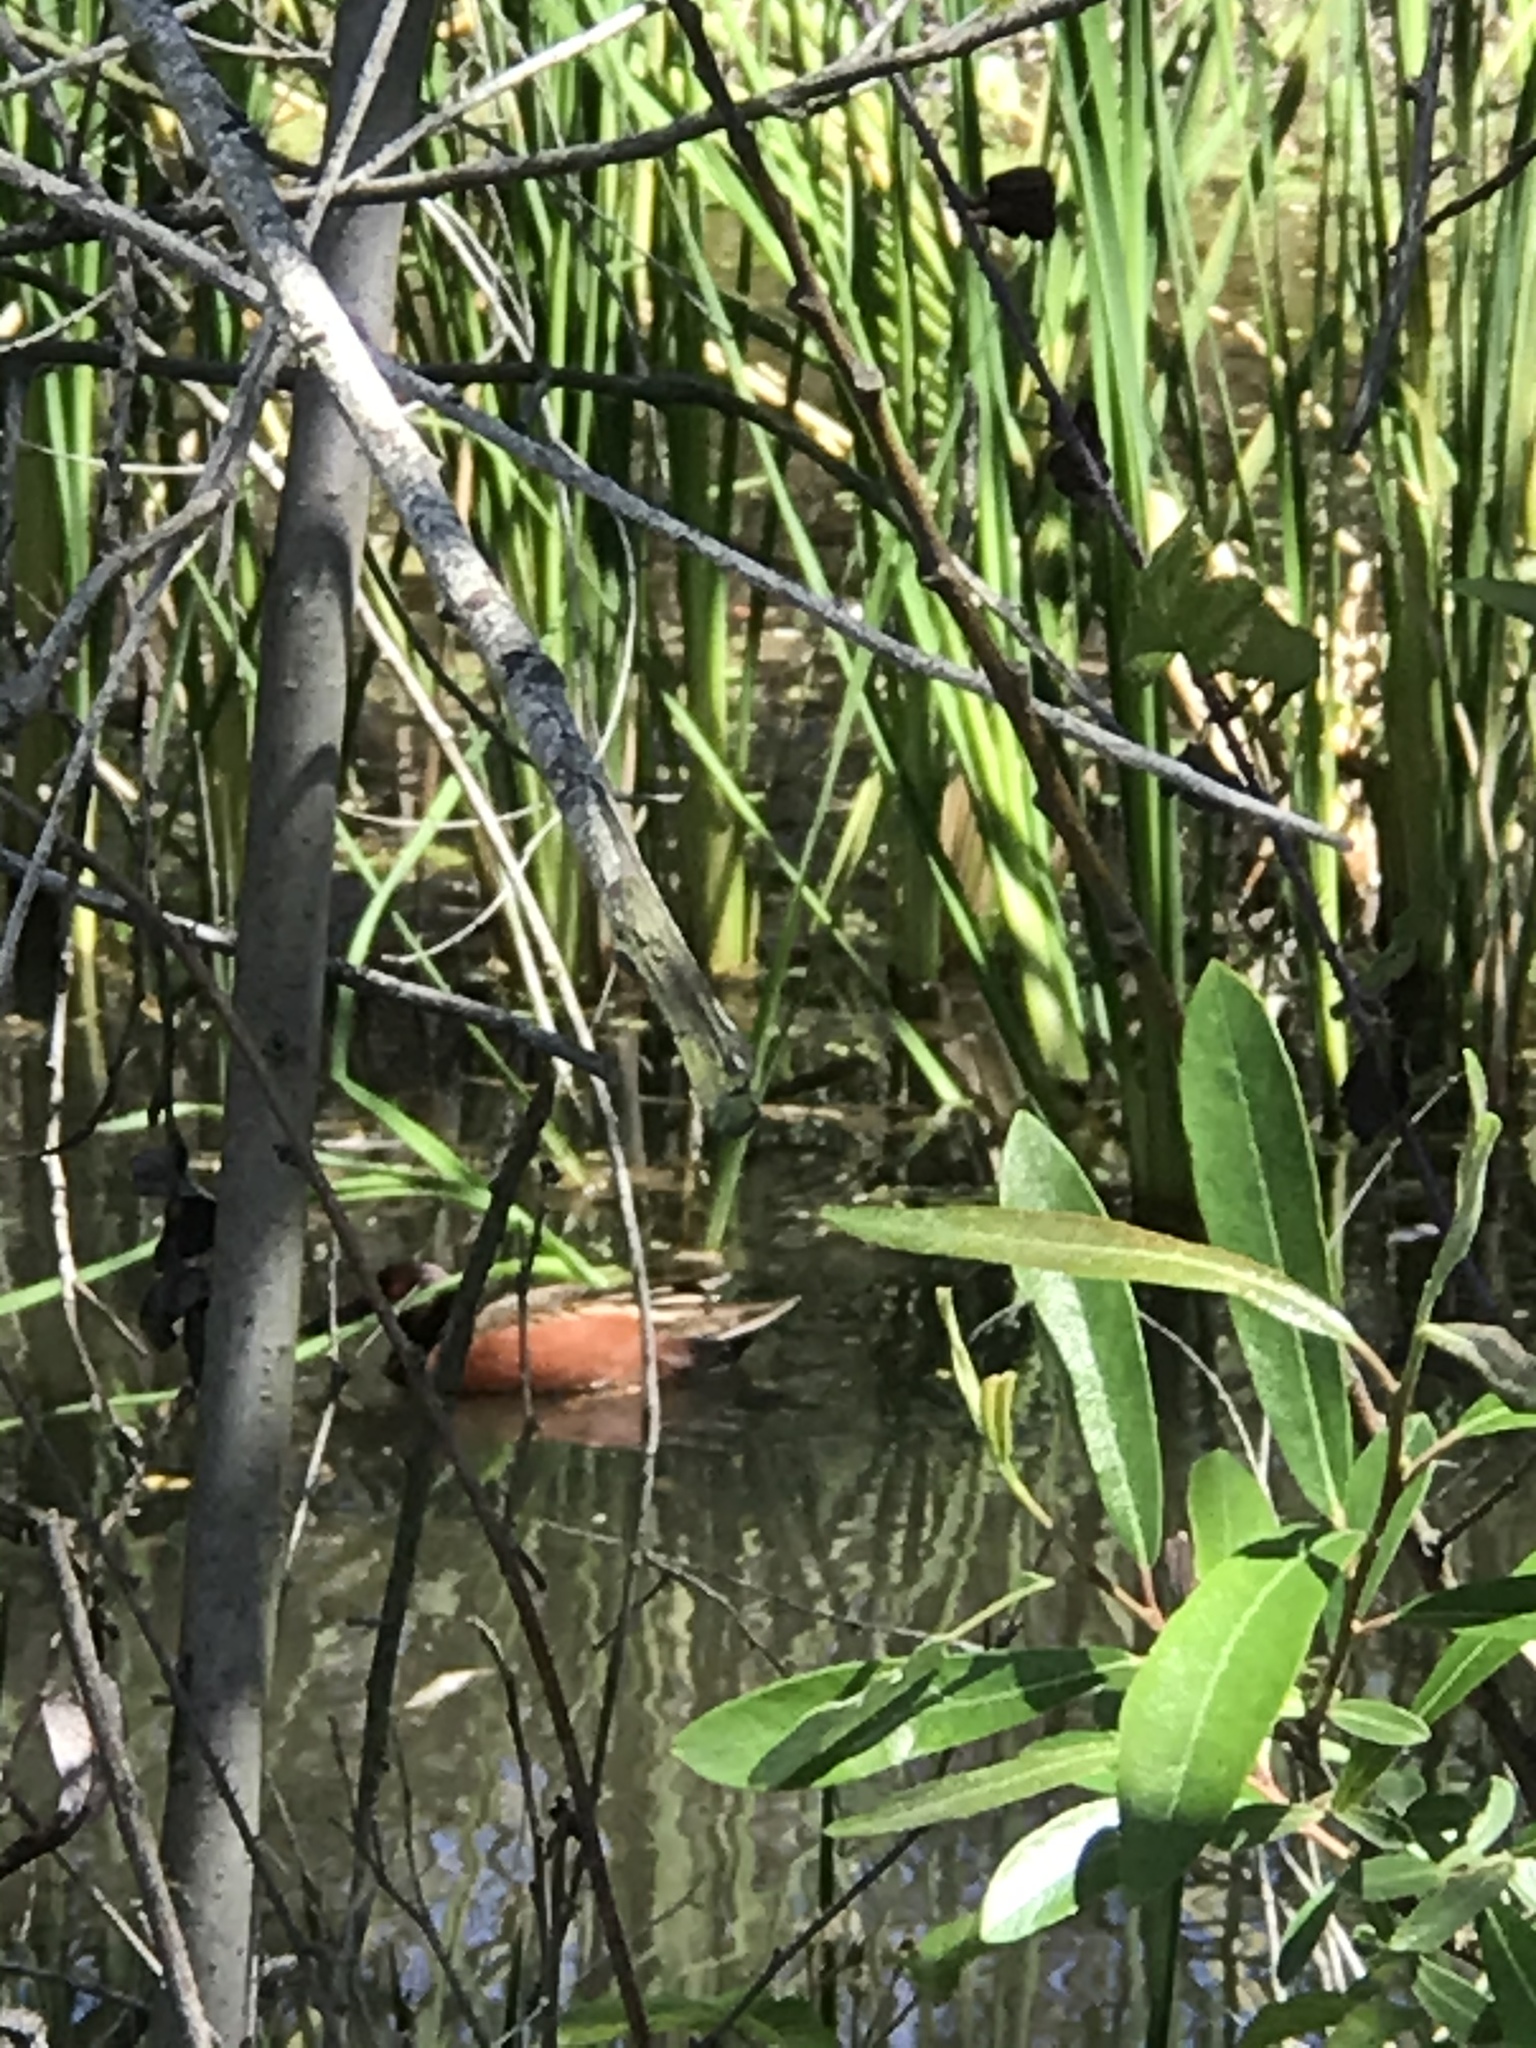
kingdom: Animalia
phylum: Chordata
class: Aves
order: Anseriformes
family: Anatidae
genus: Spatula
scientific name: Spatula cyanoptera
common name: Cinnamon teal
